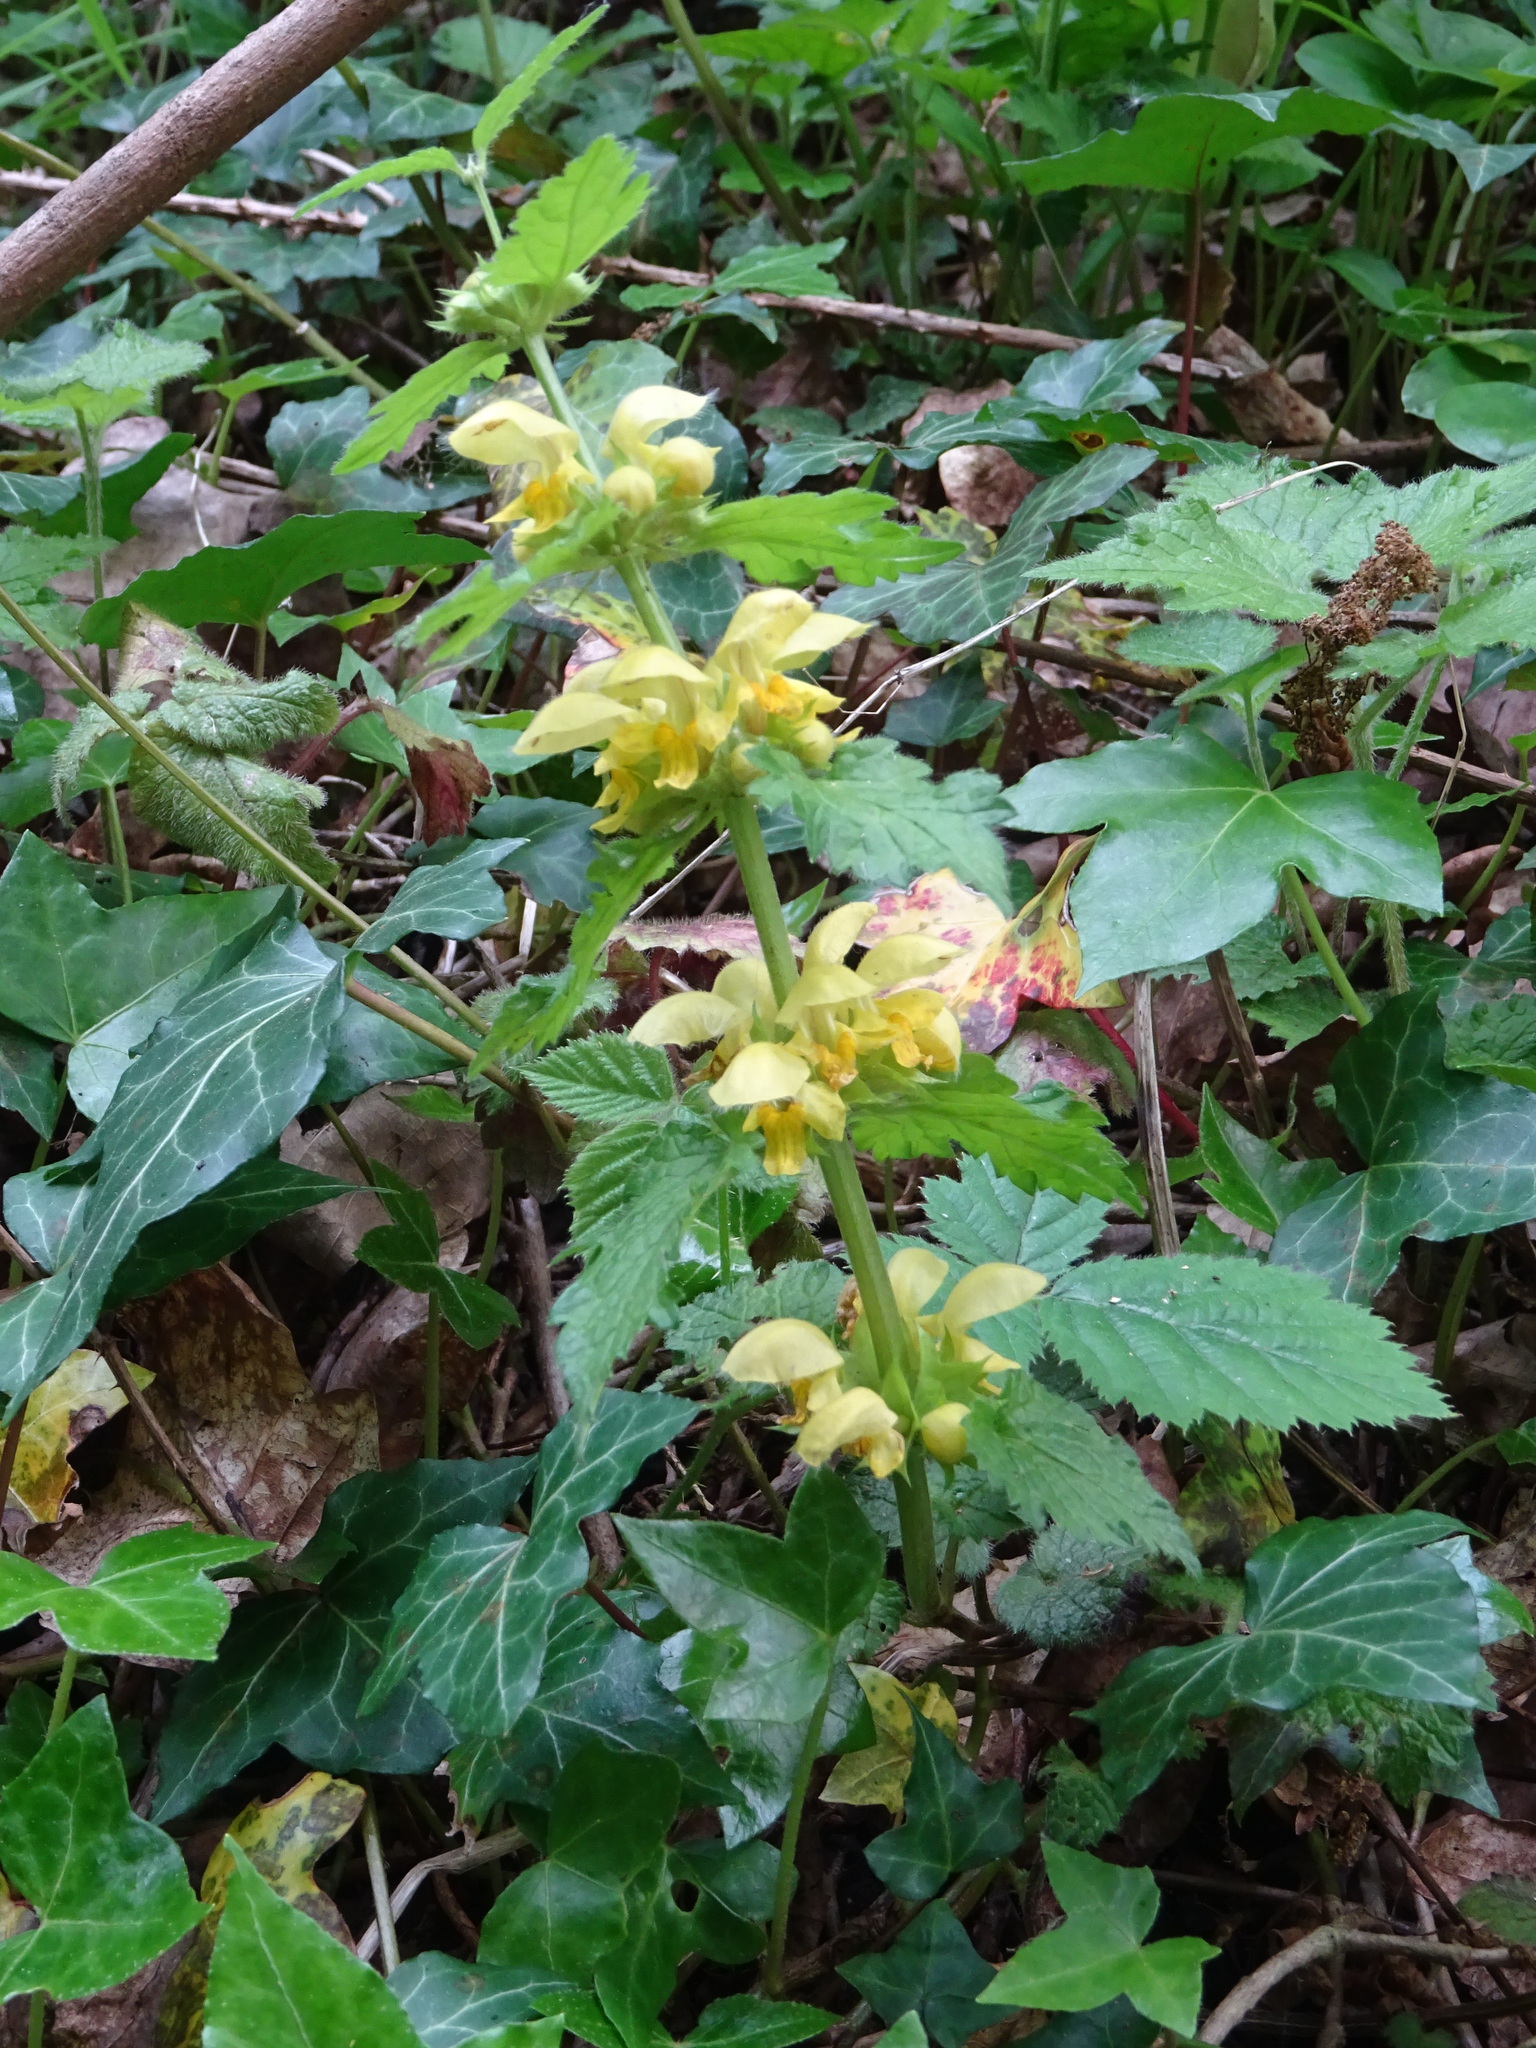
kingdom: Plantae
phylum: Tracheophyta
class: Magnoliopsida
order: Lamiales
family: Lamiaceae
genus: Lamium
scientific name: Lamium galeobdolon
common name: Yellow archangel
